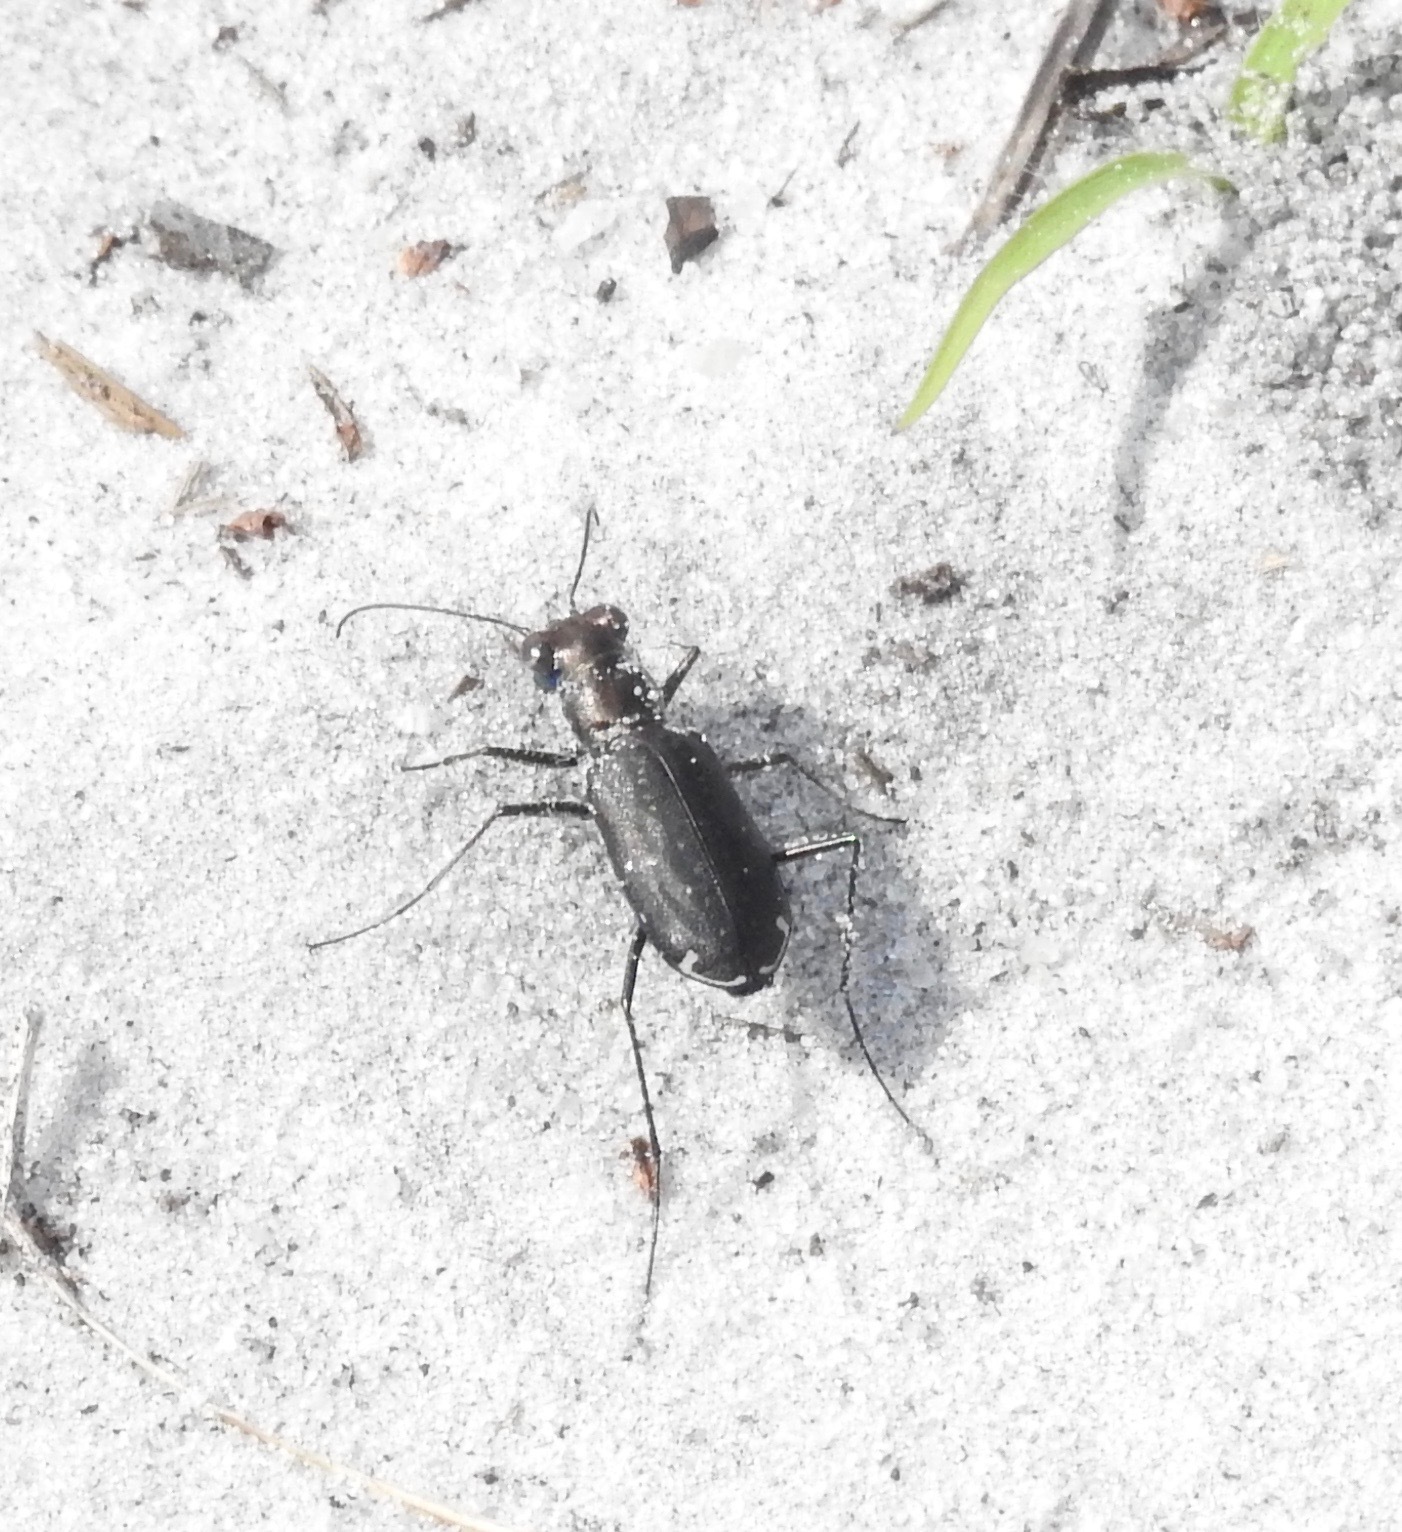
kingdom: Animalia
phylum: Arthropoda
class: Insecta
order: Coleoptera
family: Carabidae
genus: Cicindela
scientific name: Cicindela punctulata
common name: Punctured tiger beetle
